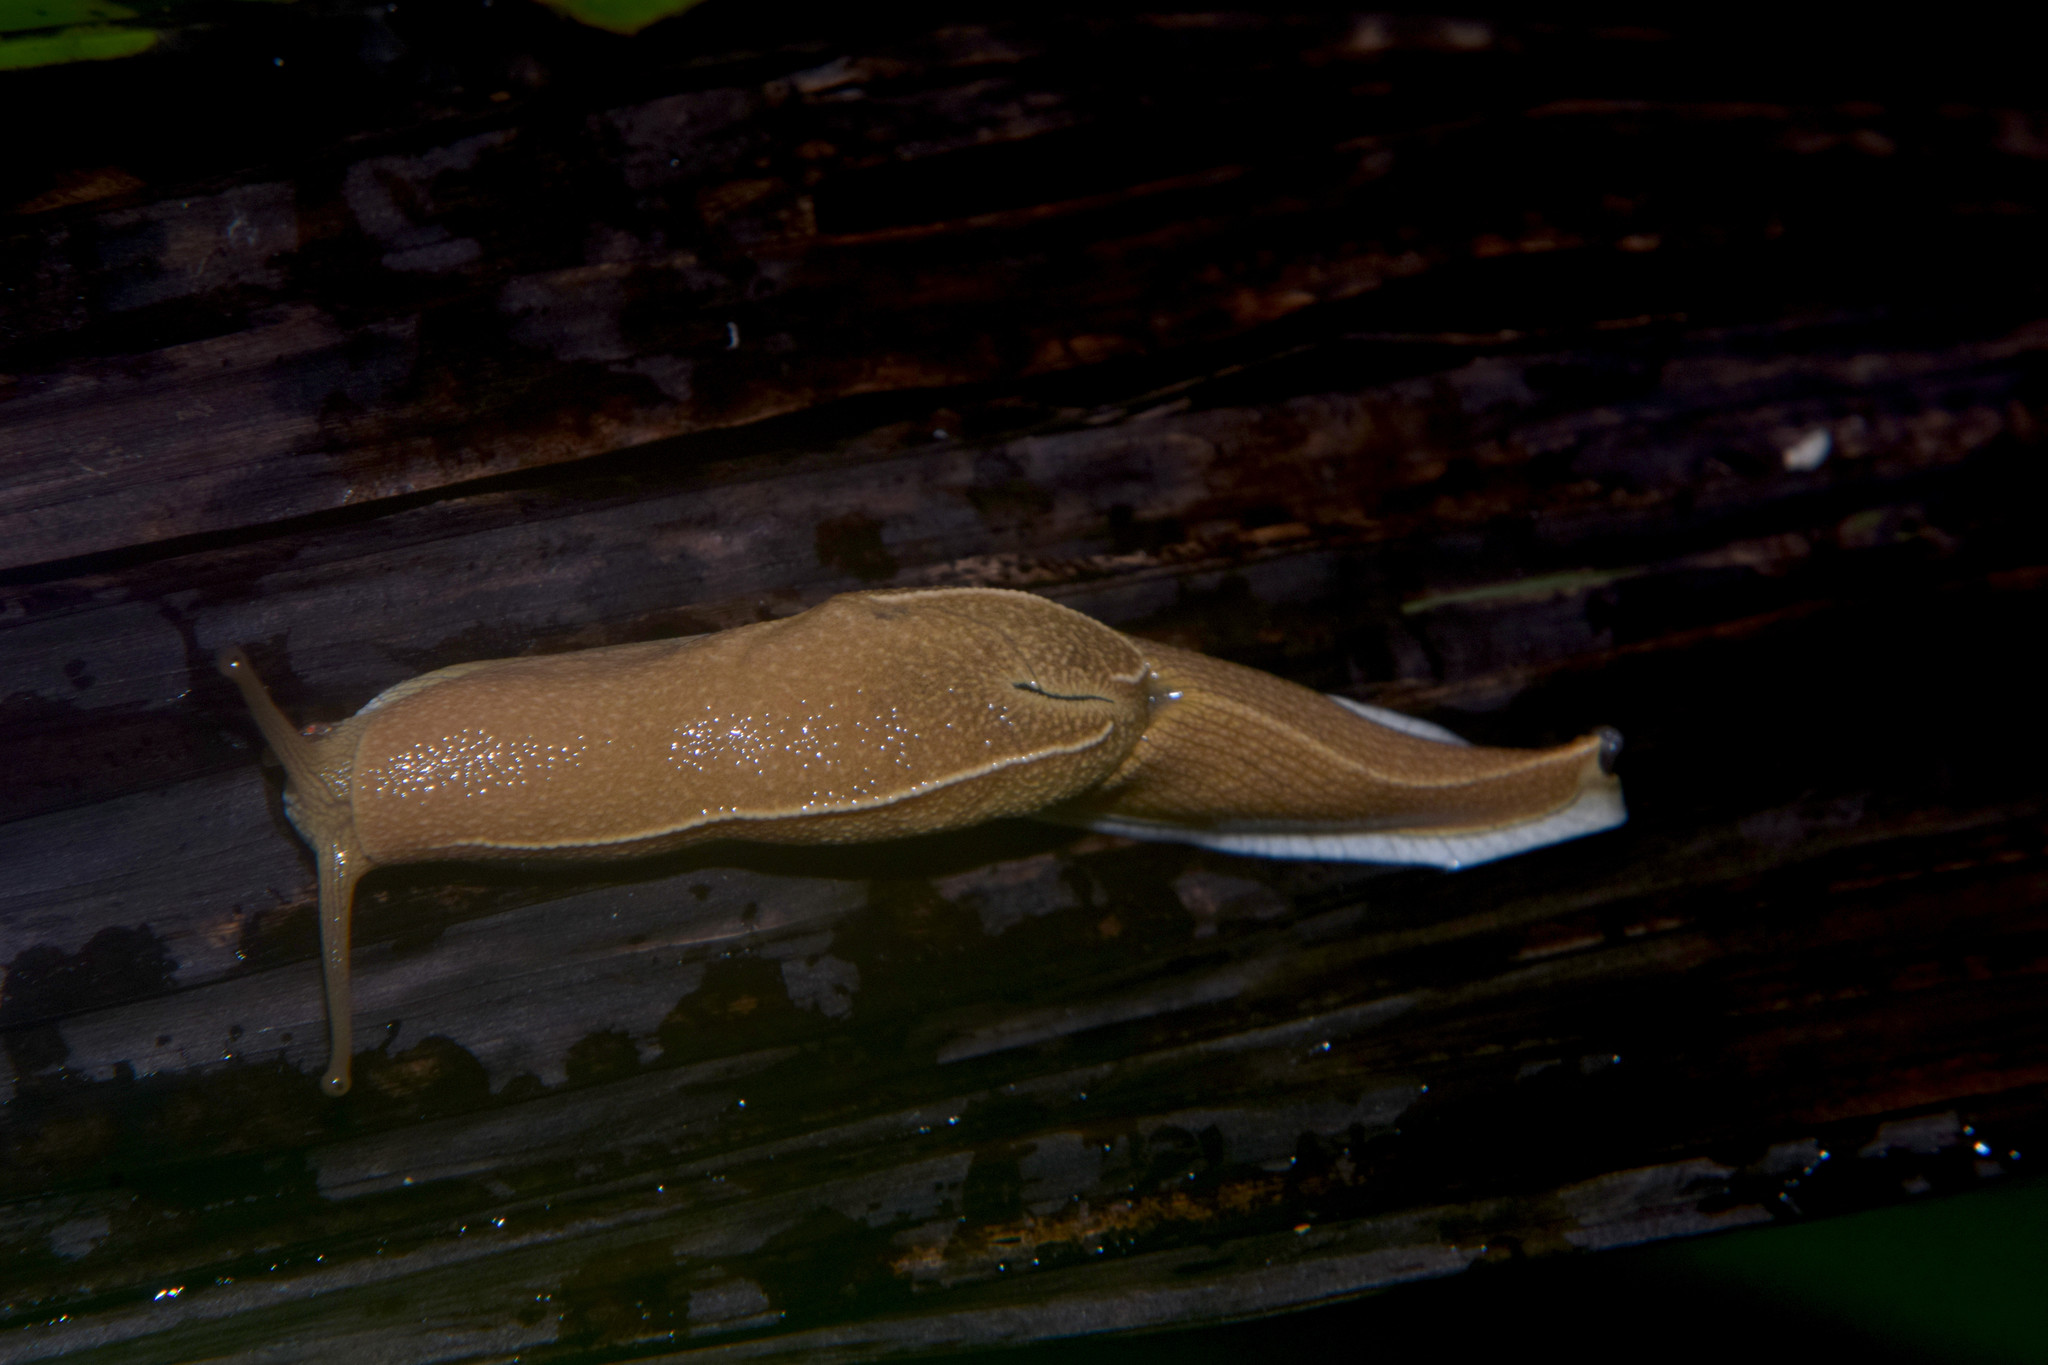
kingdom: Animalia
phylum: Mollusca
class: Gastropoda
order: Stylommatophora
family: Helicarionidae
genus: Girasia
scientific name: Girasia crocea
